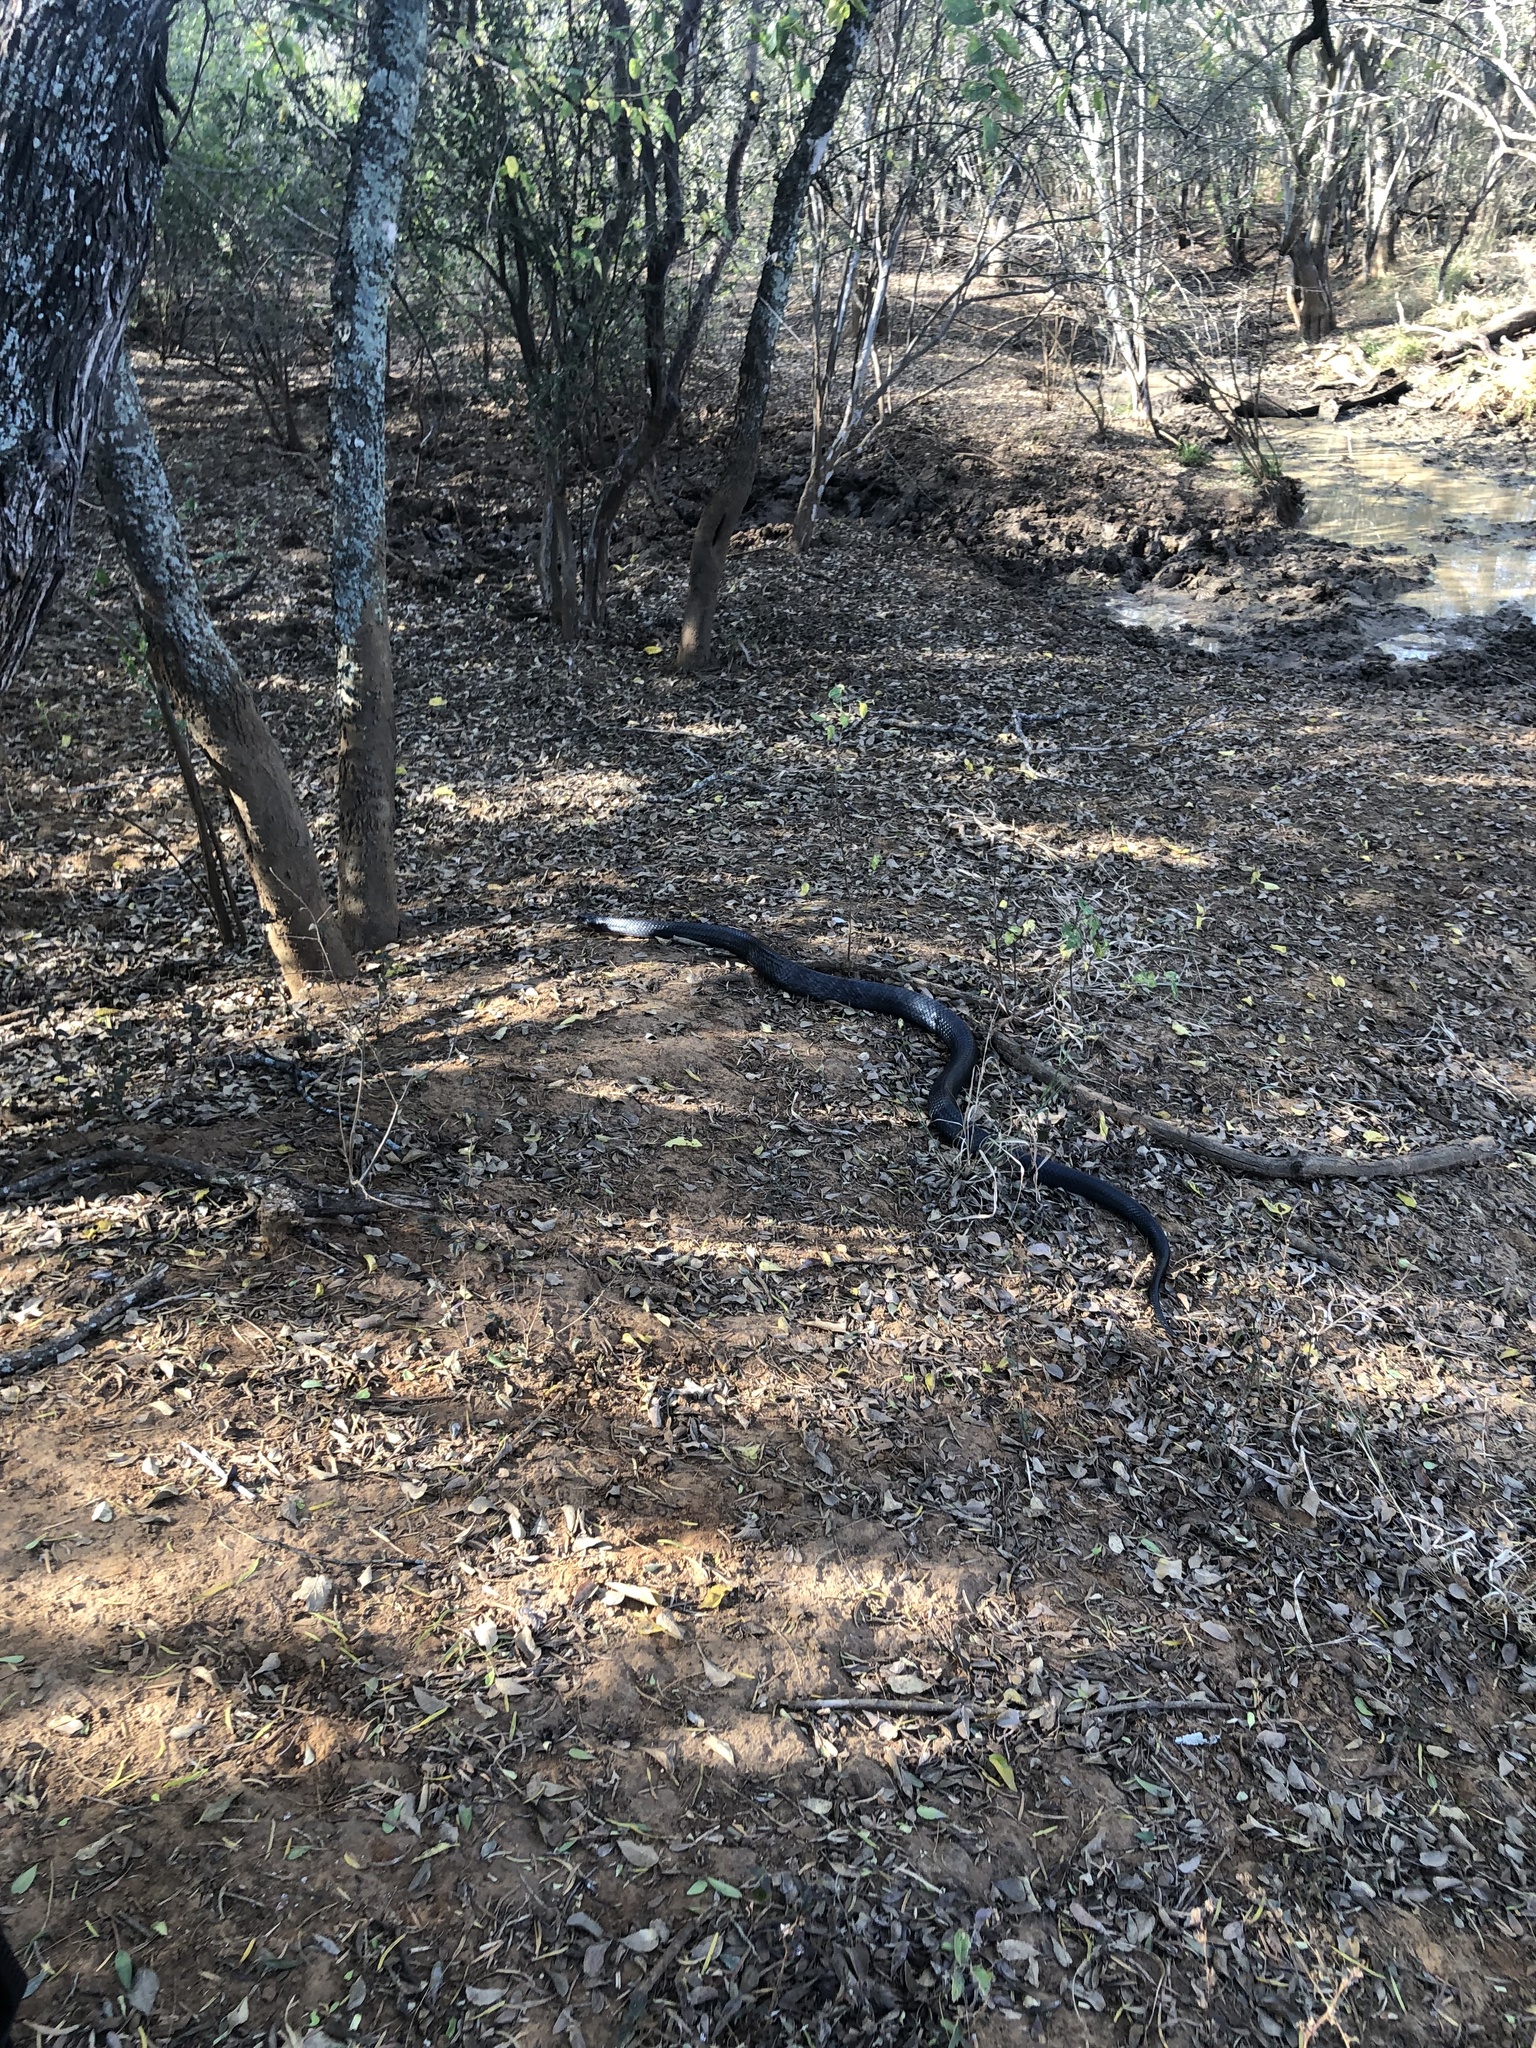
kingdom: Animalia
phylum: Chordata
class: Squamata
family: Colubridae
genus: Drymarchon
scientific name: Drymarchon melanurus
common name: Central american indigo snake
